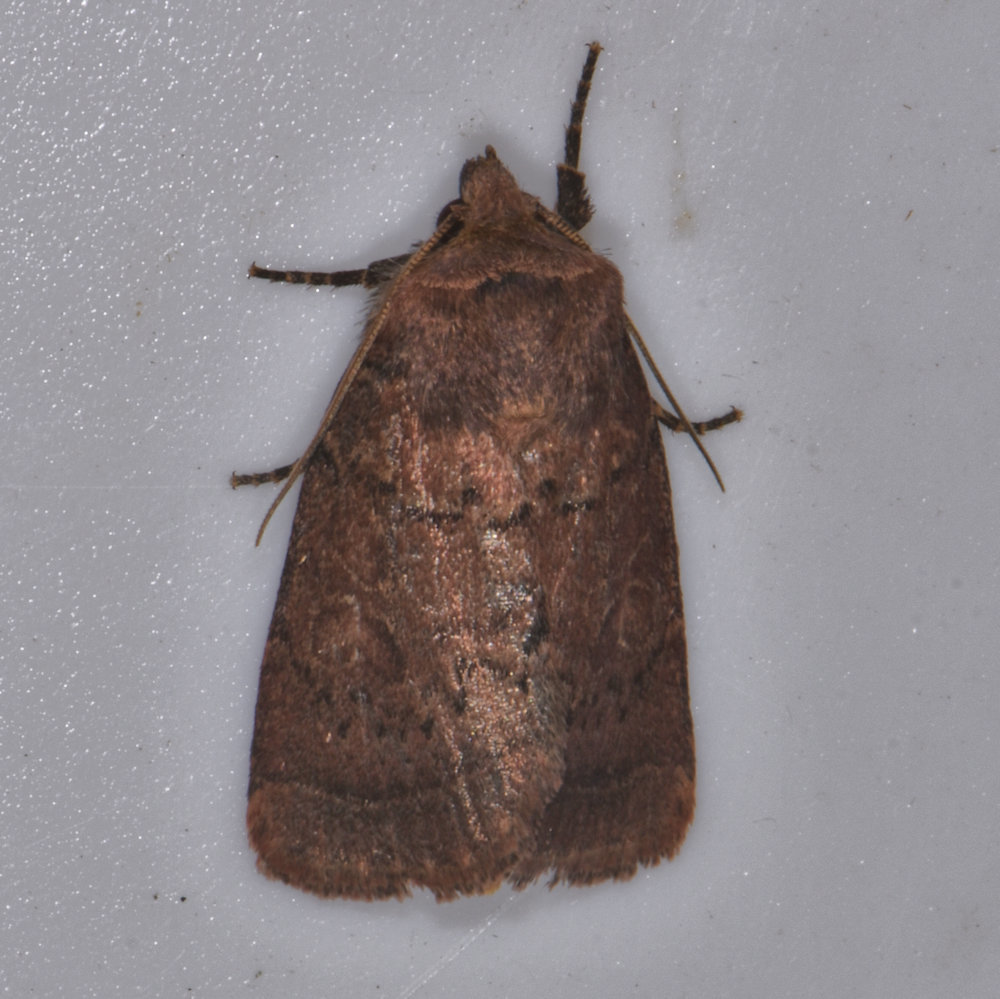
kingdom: Animalia
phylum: Arthropoda
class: Insecta
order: Lepidoptera
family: Noctuidae
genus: Orthodes
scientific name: Orthodes cynica
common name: Cynical quaker
